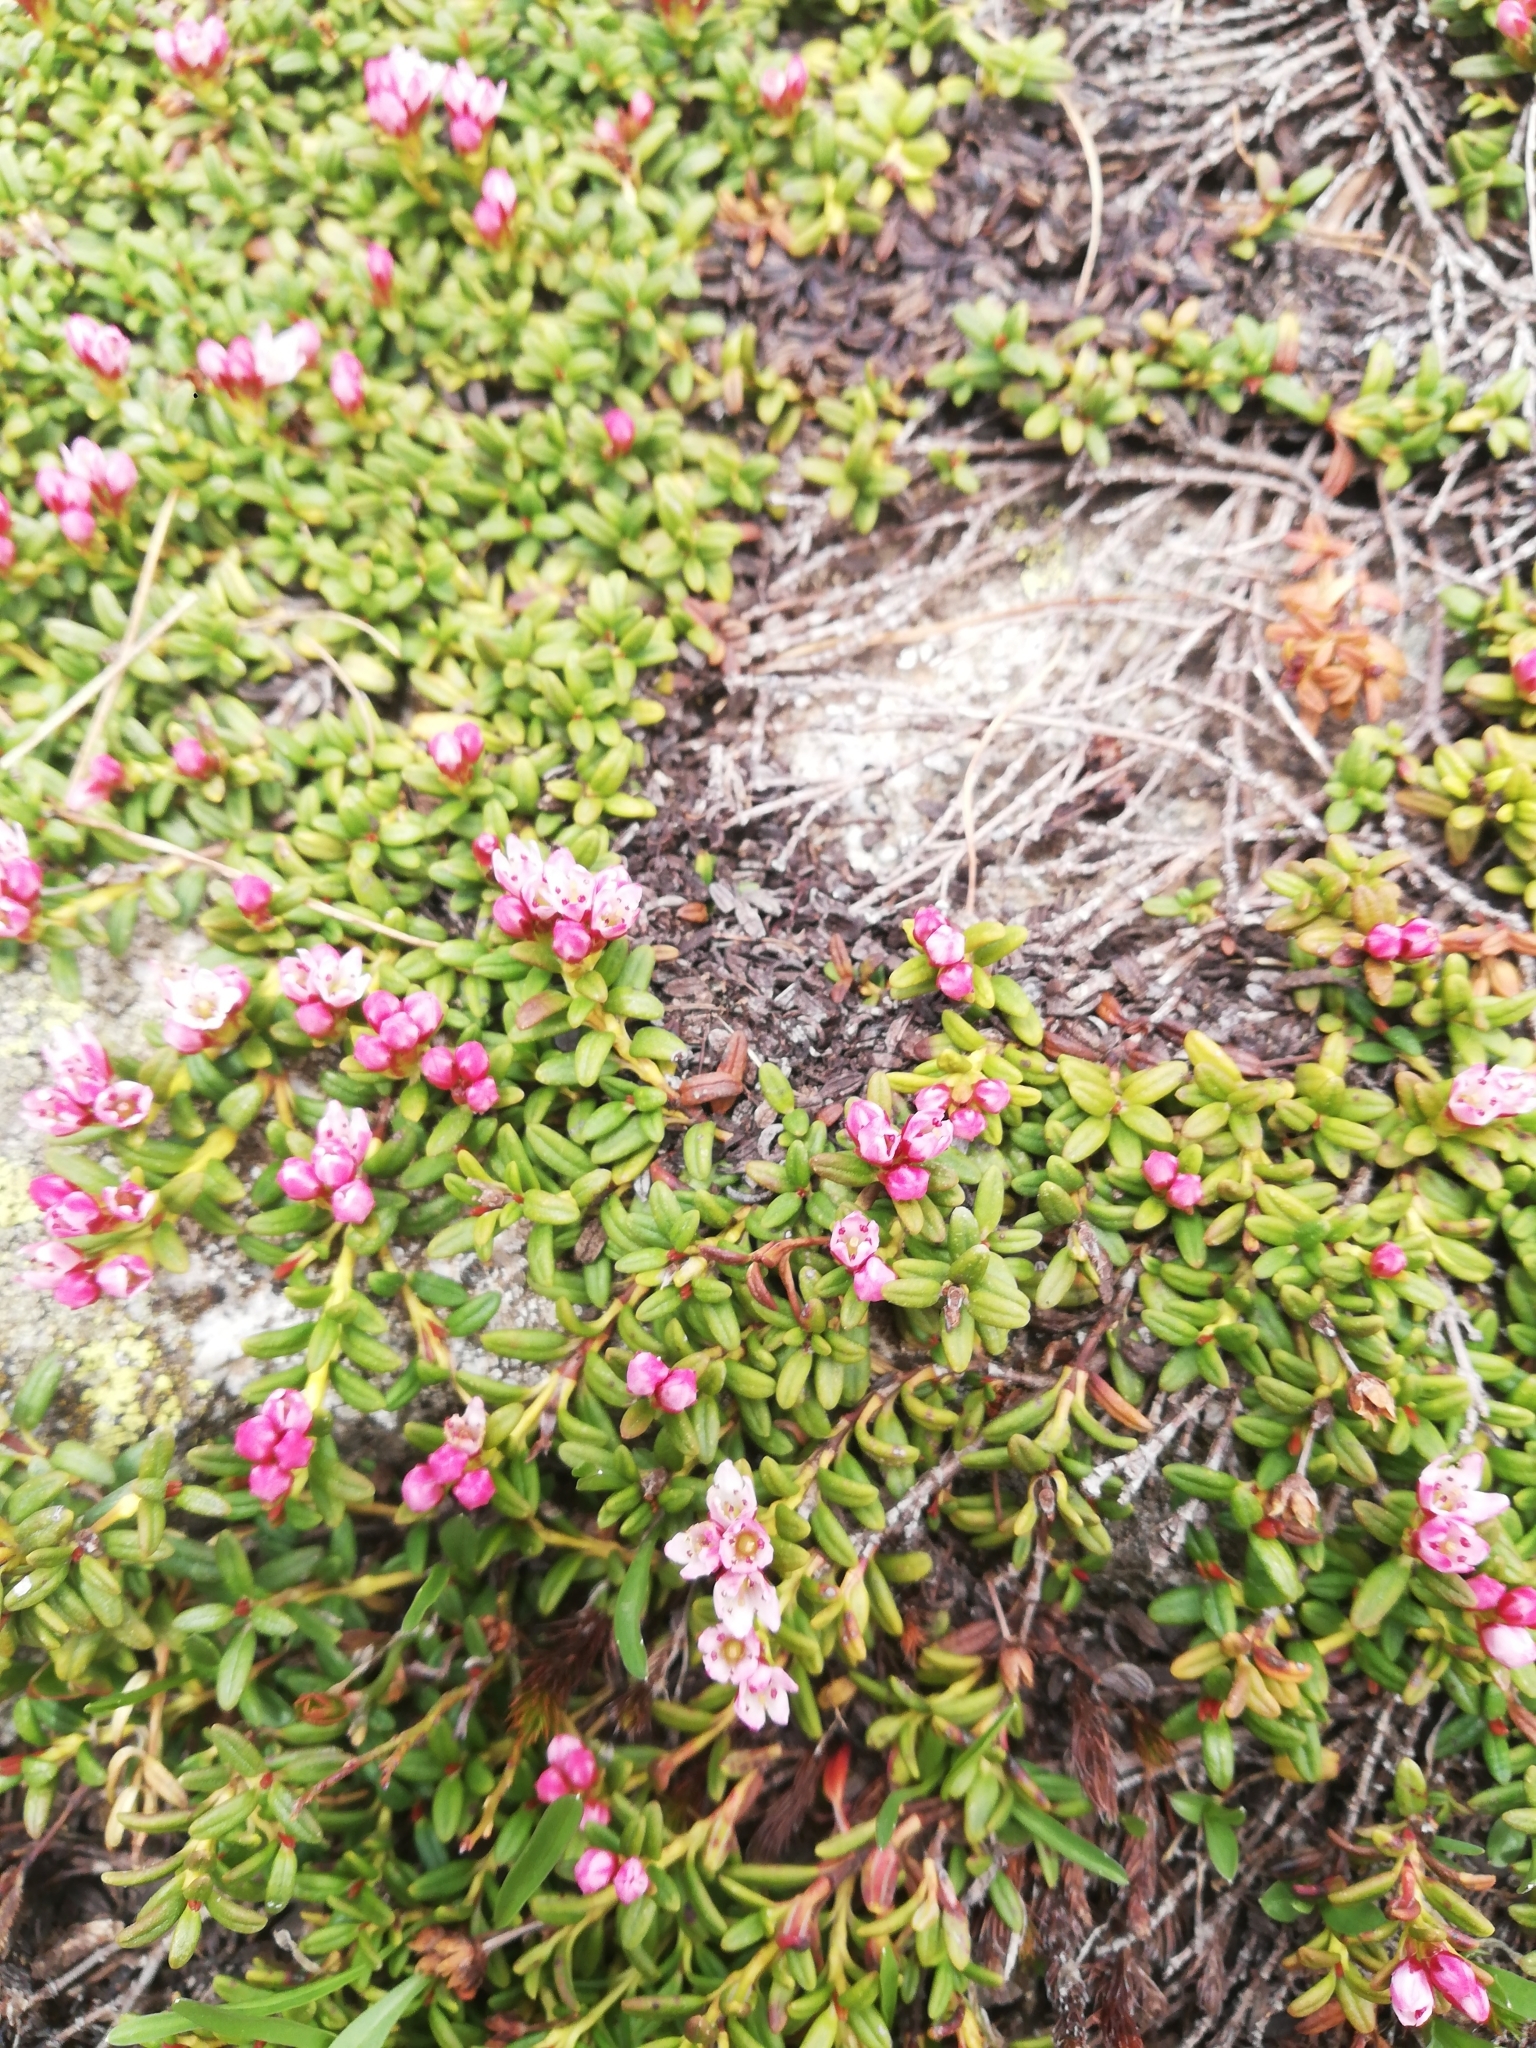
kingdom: Plantae
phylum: Tracheophyta
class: Magnoliopsida
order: Ericales
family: Ericaceae
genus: Kalmia
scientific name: Kalmia procumbens
